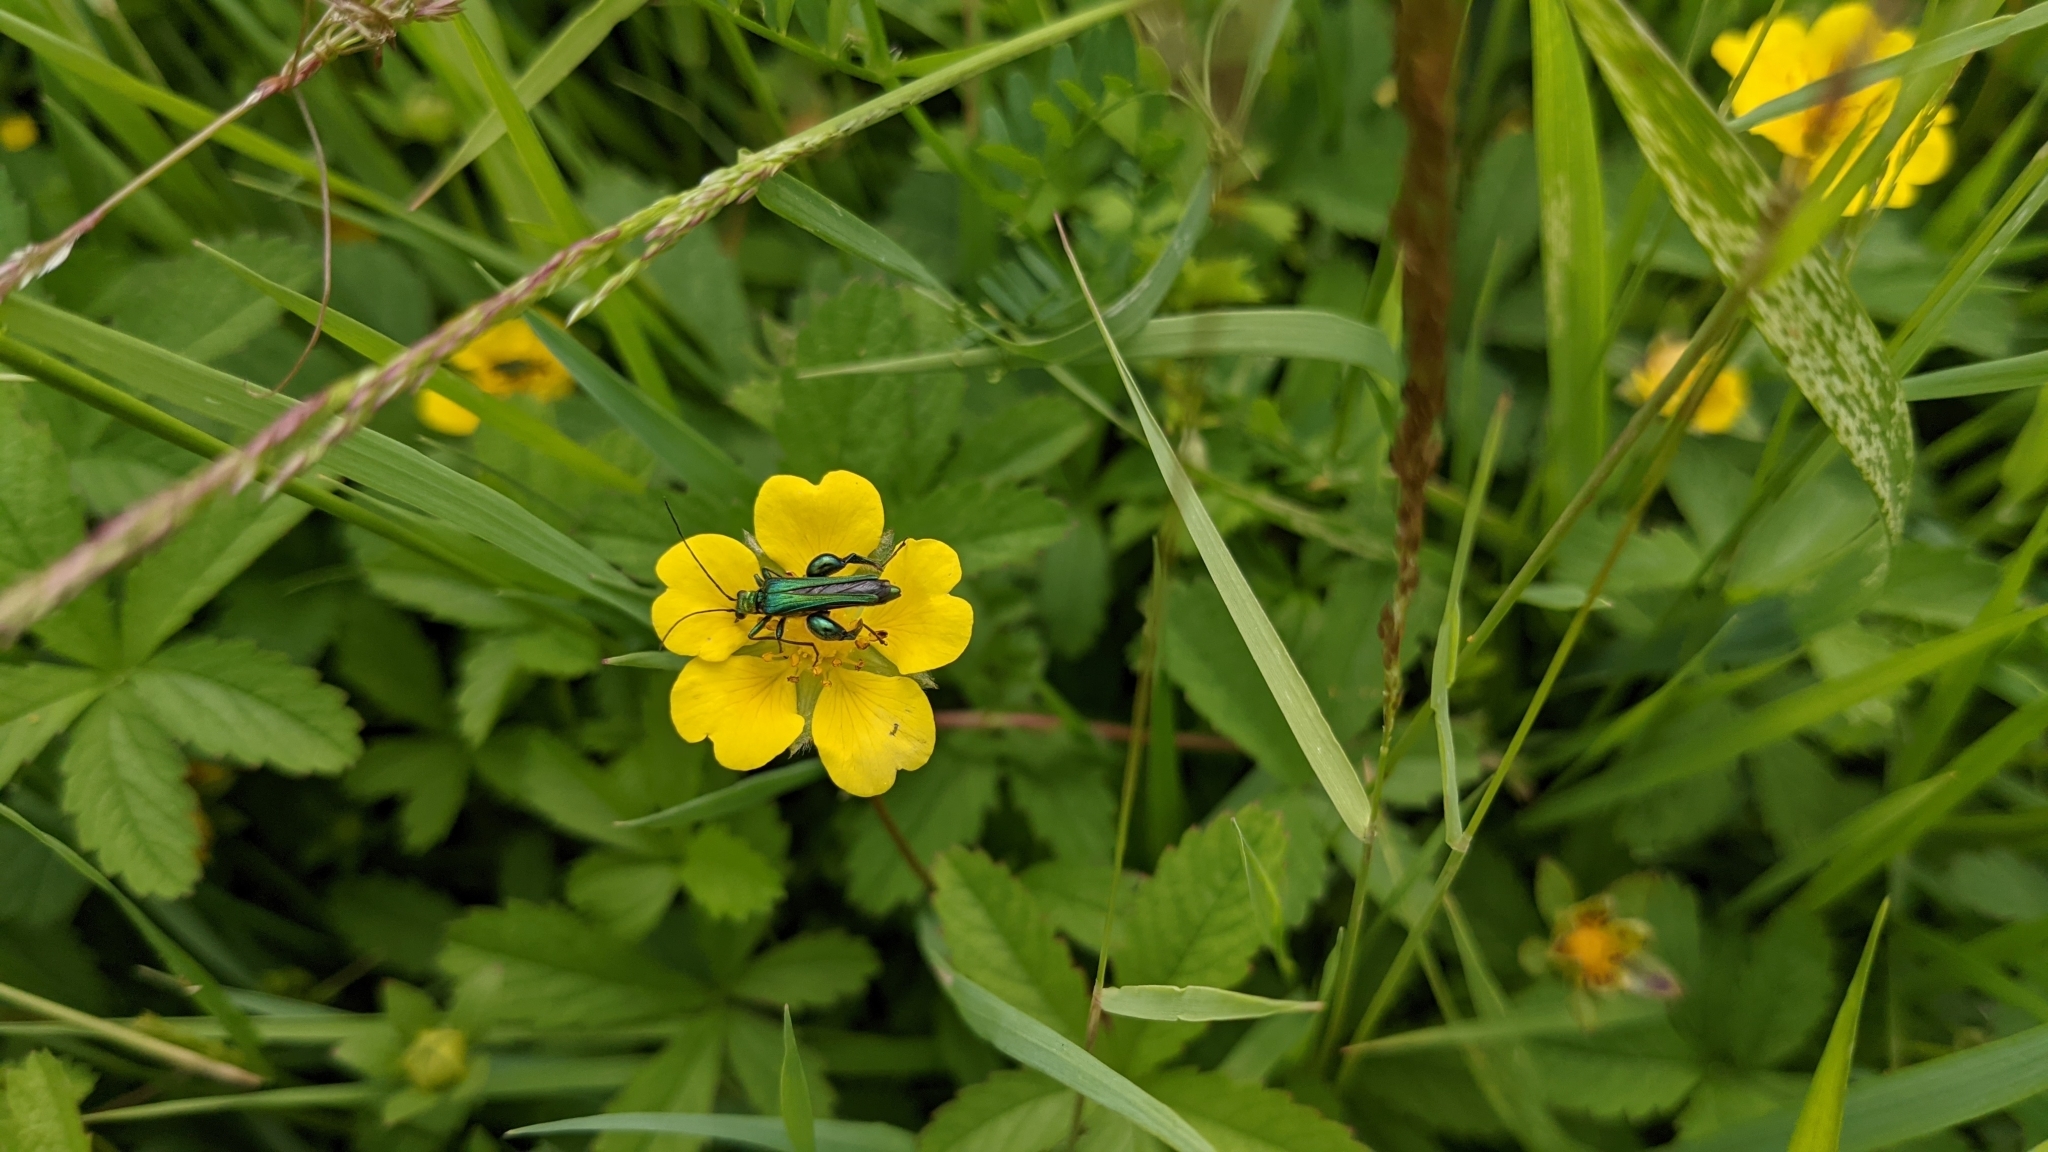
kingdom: Animalia
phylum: Arthropoda
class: Insecta
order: Coleoptera
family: Oedemeridae
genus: Oedemera
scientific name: Oedemera nobilis
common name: Swollen-thighed beetle
